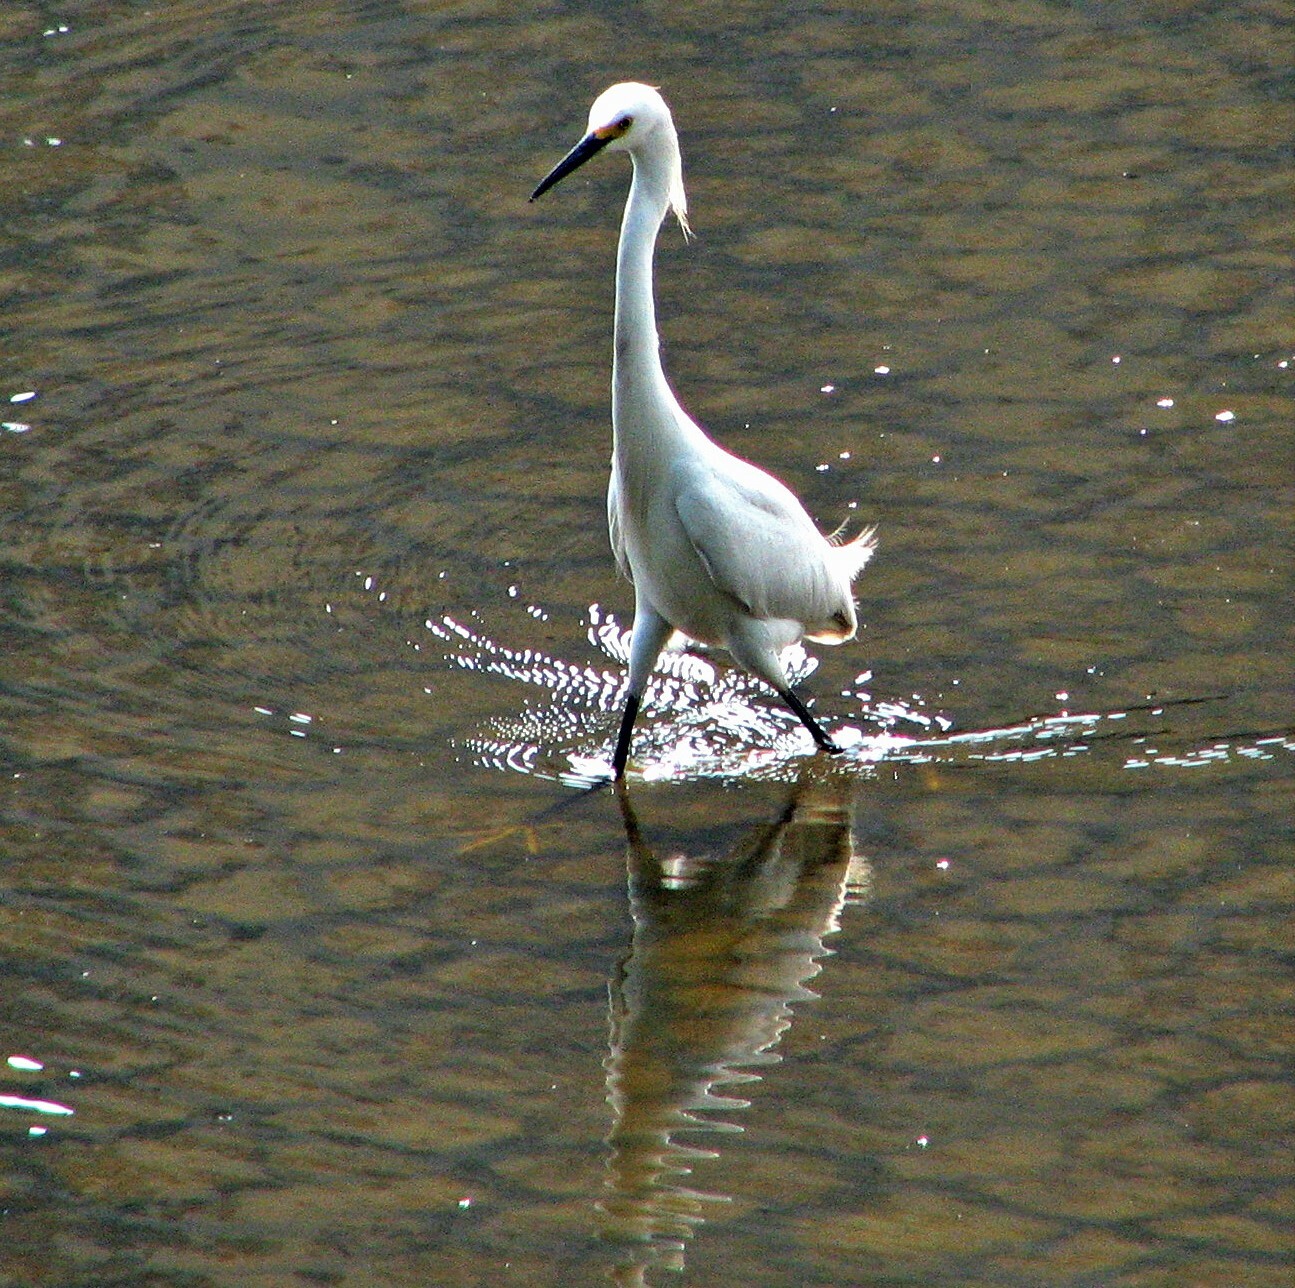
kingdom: Animalia
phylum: Chordata
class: Aves
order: Pelecaniformes
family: Ardeidae
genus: Egretta
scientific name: Egretta thula
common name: Snowy egret
